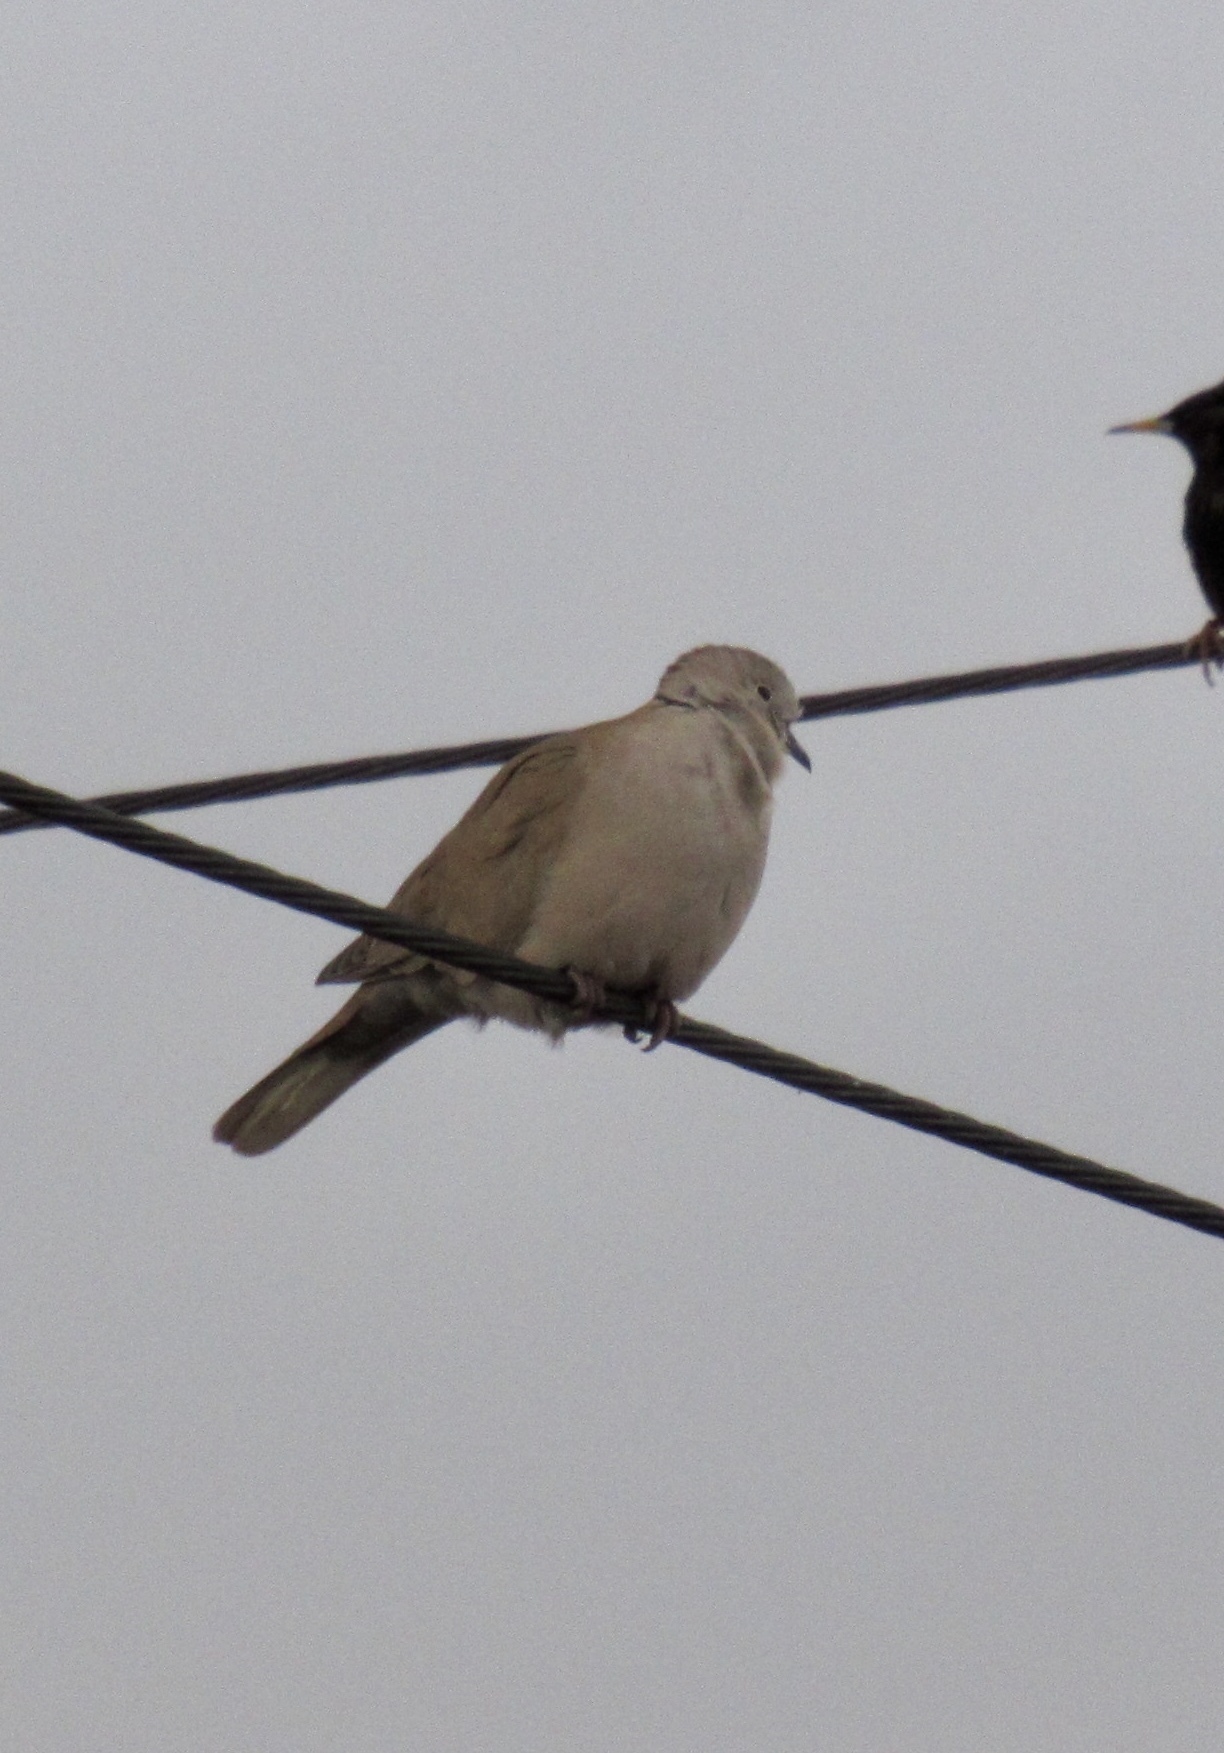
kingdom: Animalia
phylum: Chordata
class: Aves
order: Columbiformes
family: Columbidae
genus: Streptopelia
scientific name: Streptopelia decaocto
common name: Eurasian collared dove
